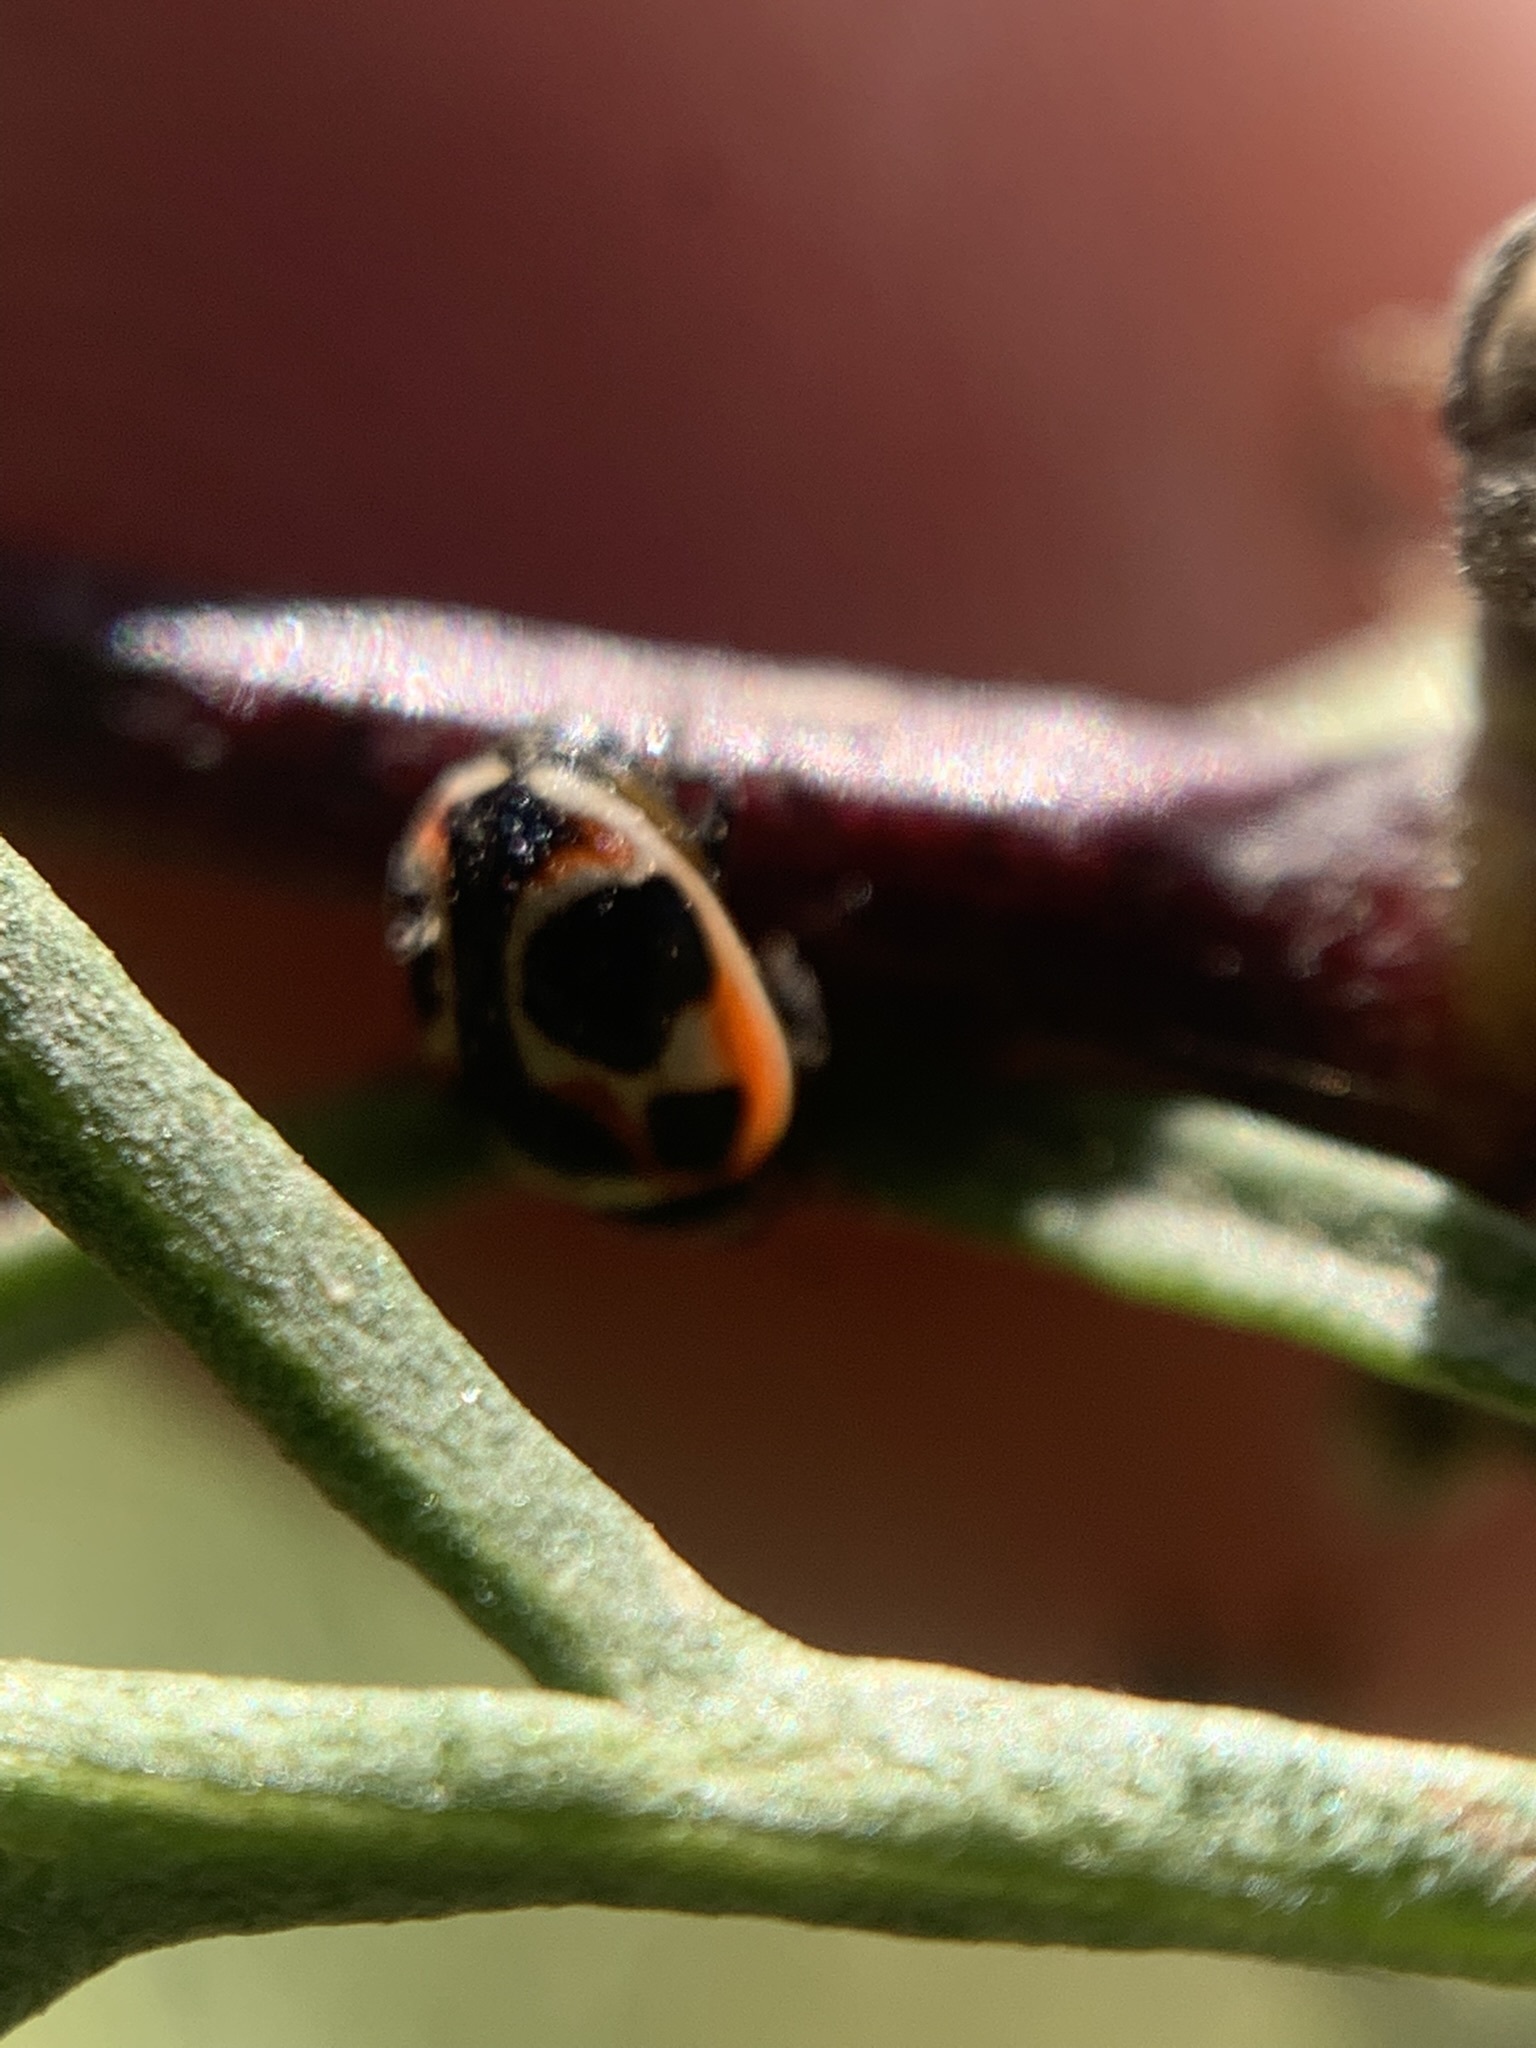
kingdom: Animalia
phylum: Arthropoda
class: Insecta
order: Coleoptera
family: Coccinellidae
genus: Cycloneda
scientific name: Cycloneda ancoralis
